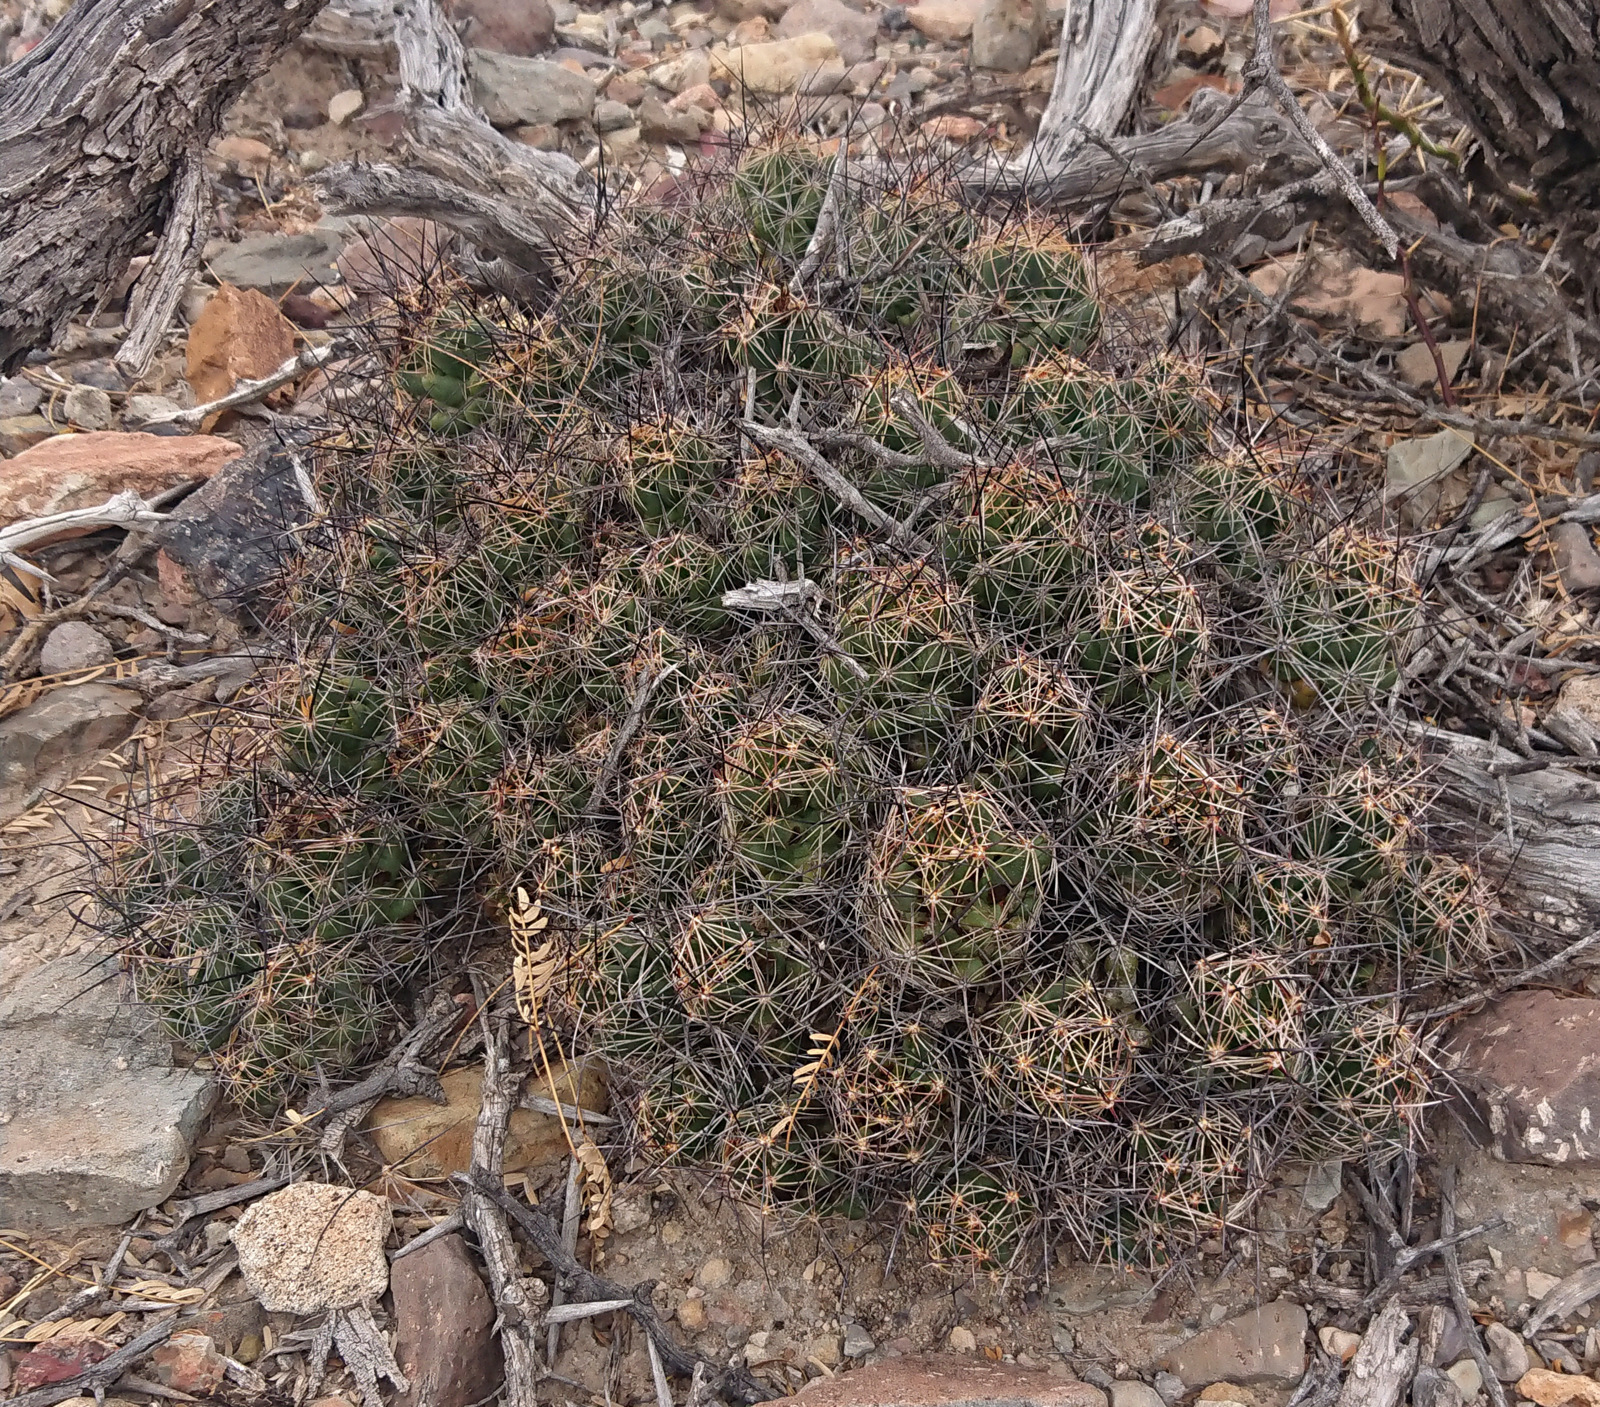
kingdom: Plantae
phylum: Tracheophyta
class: Magnoliopsida
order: Caryophyllales
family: Cactaceae
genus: Coryphantha
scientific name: Coryphantha macromeris
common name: Nipple beehive cactus
